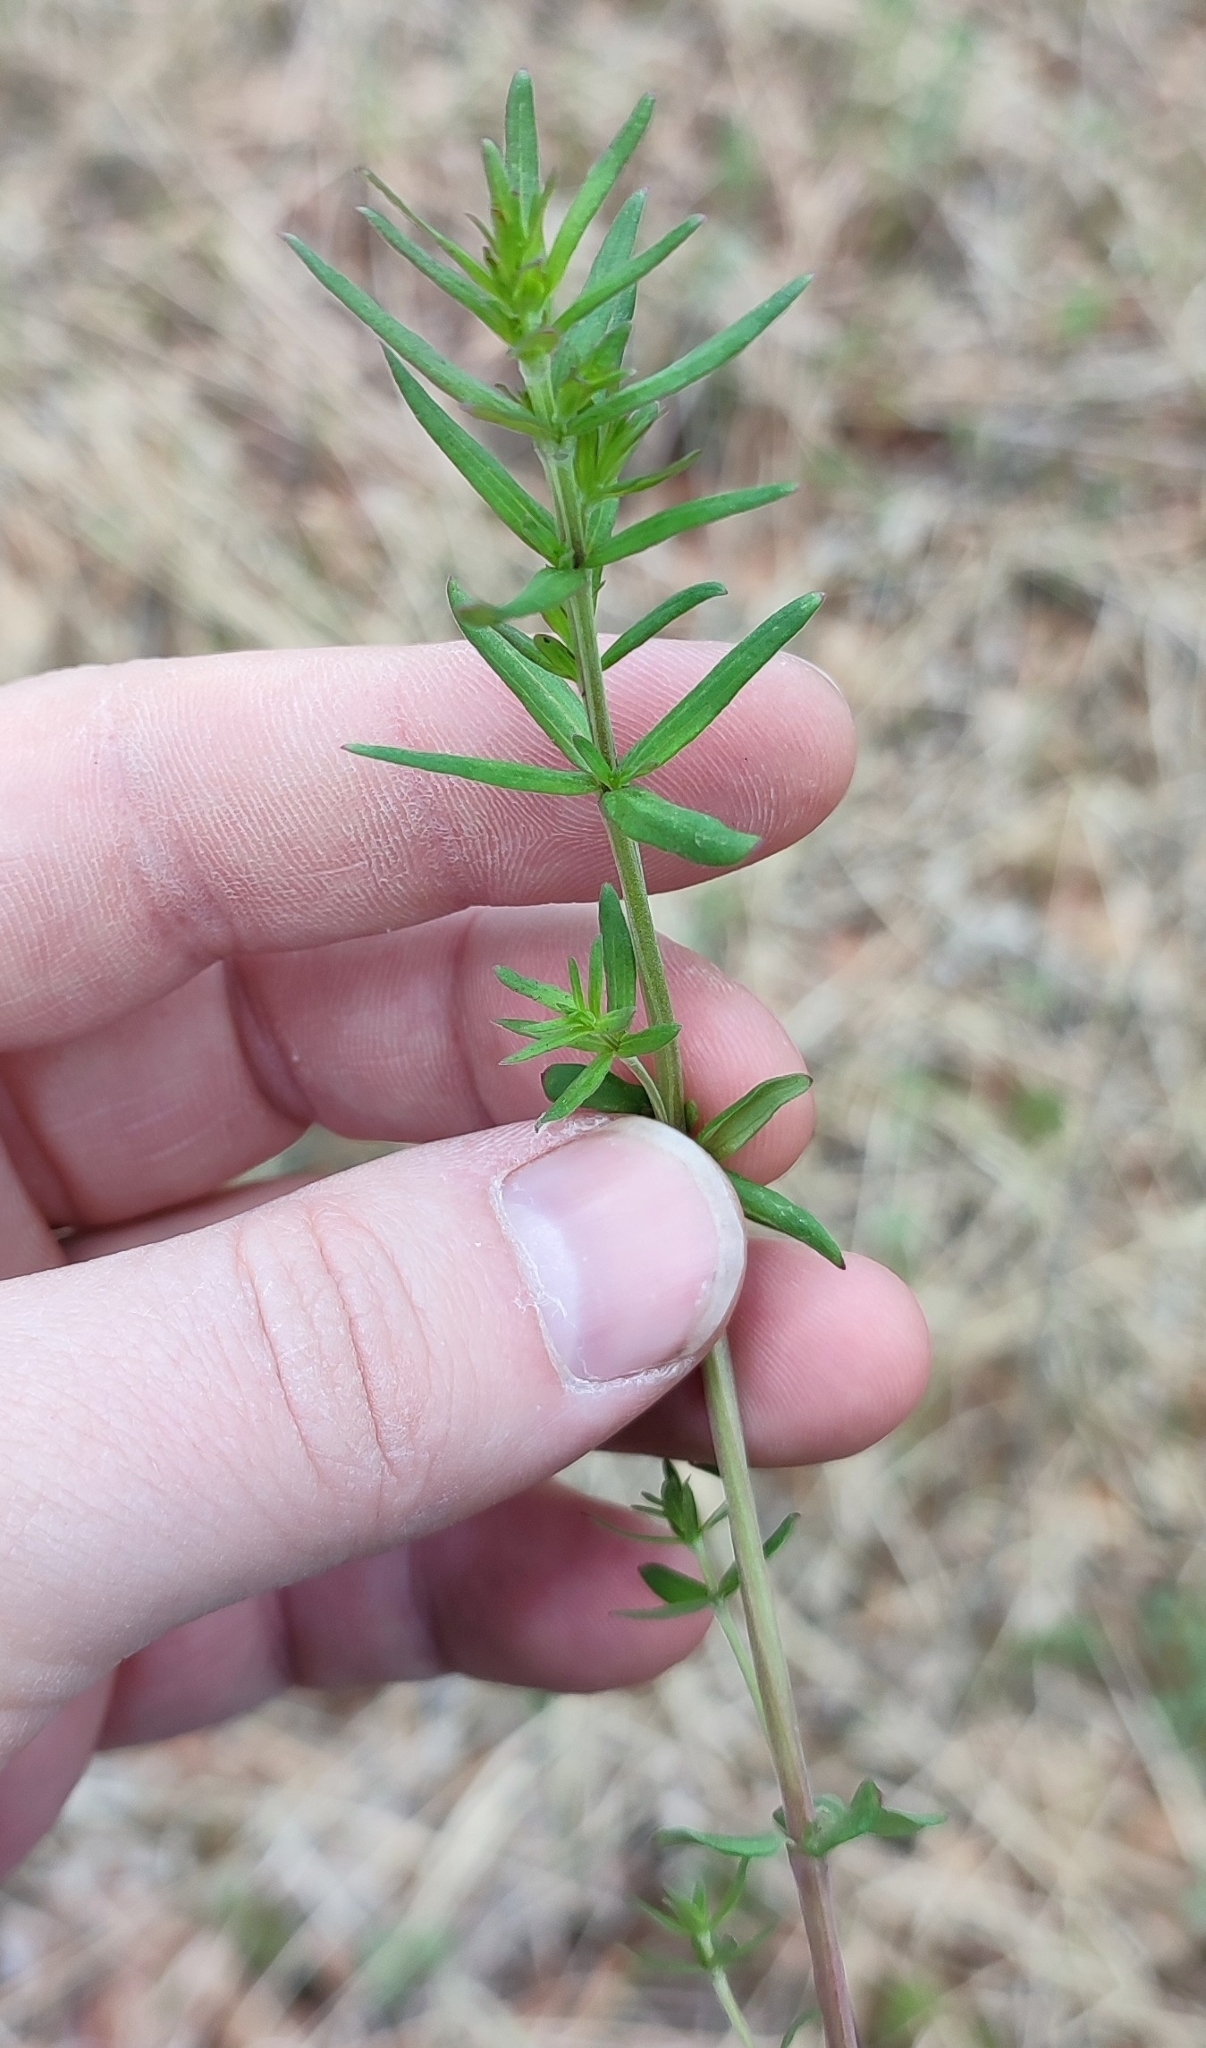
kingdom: Plantae
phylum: Tracheophyta
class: Magnoliopsida
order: Gentianales
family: Rubiaceae
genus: Galium
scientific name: Galium boreale
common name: Northern bedstraw
